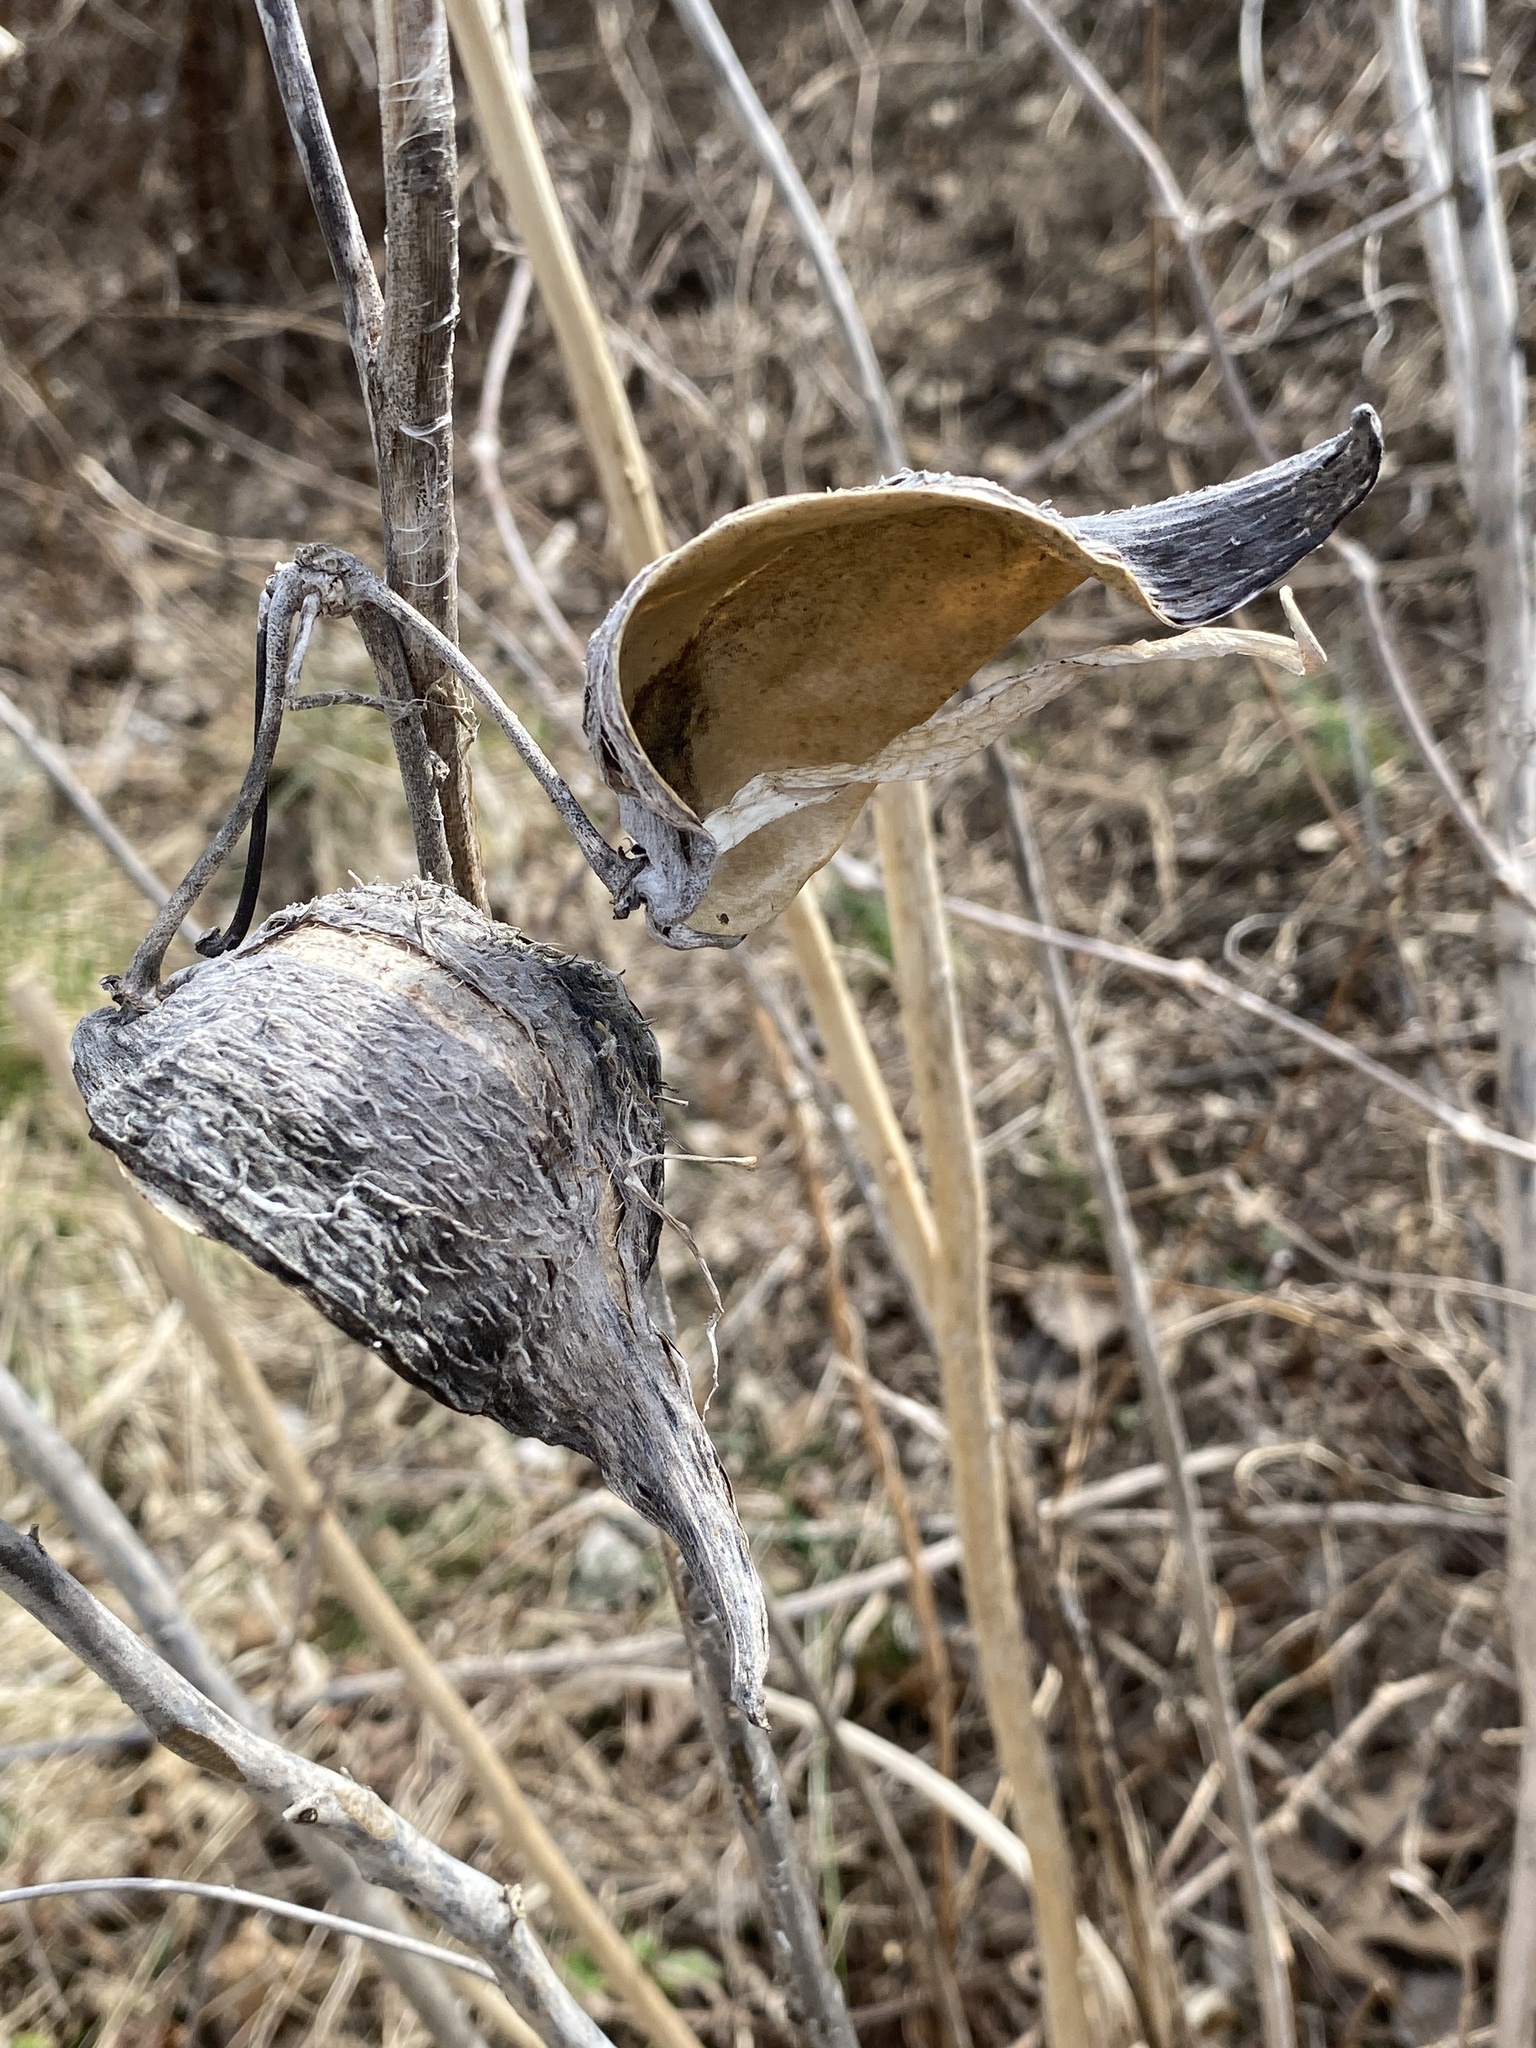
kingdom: Plantae
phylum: Tracheophyta
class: Magnoliopsida
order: Gentianales
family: Apocynaceae
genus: Asclepias
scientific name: Asclepias syriaca
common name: Common milkweed
